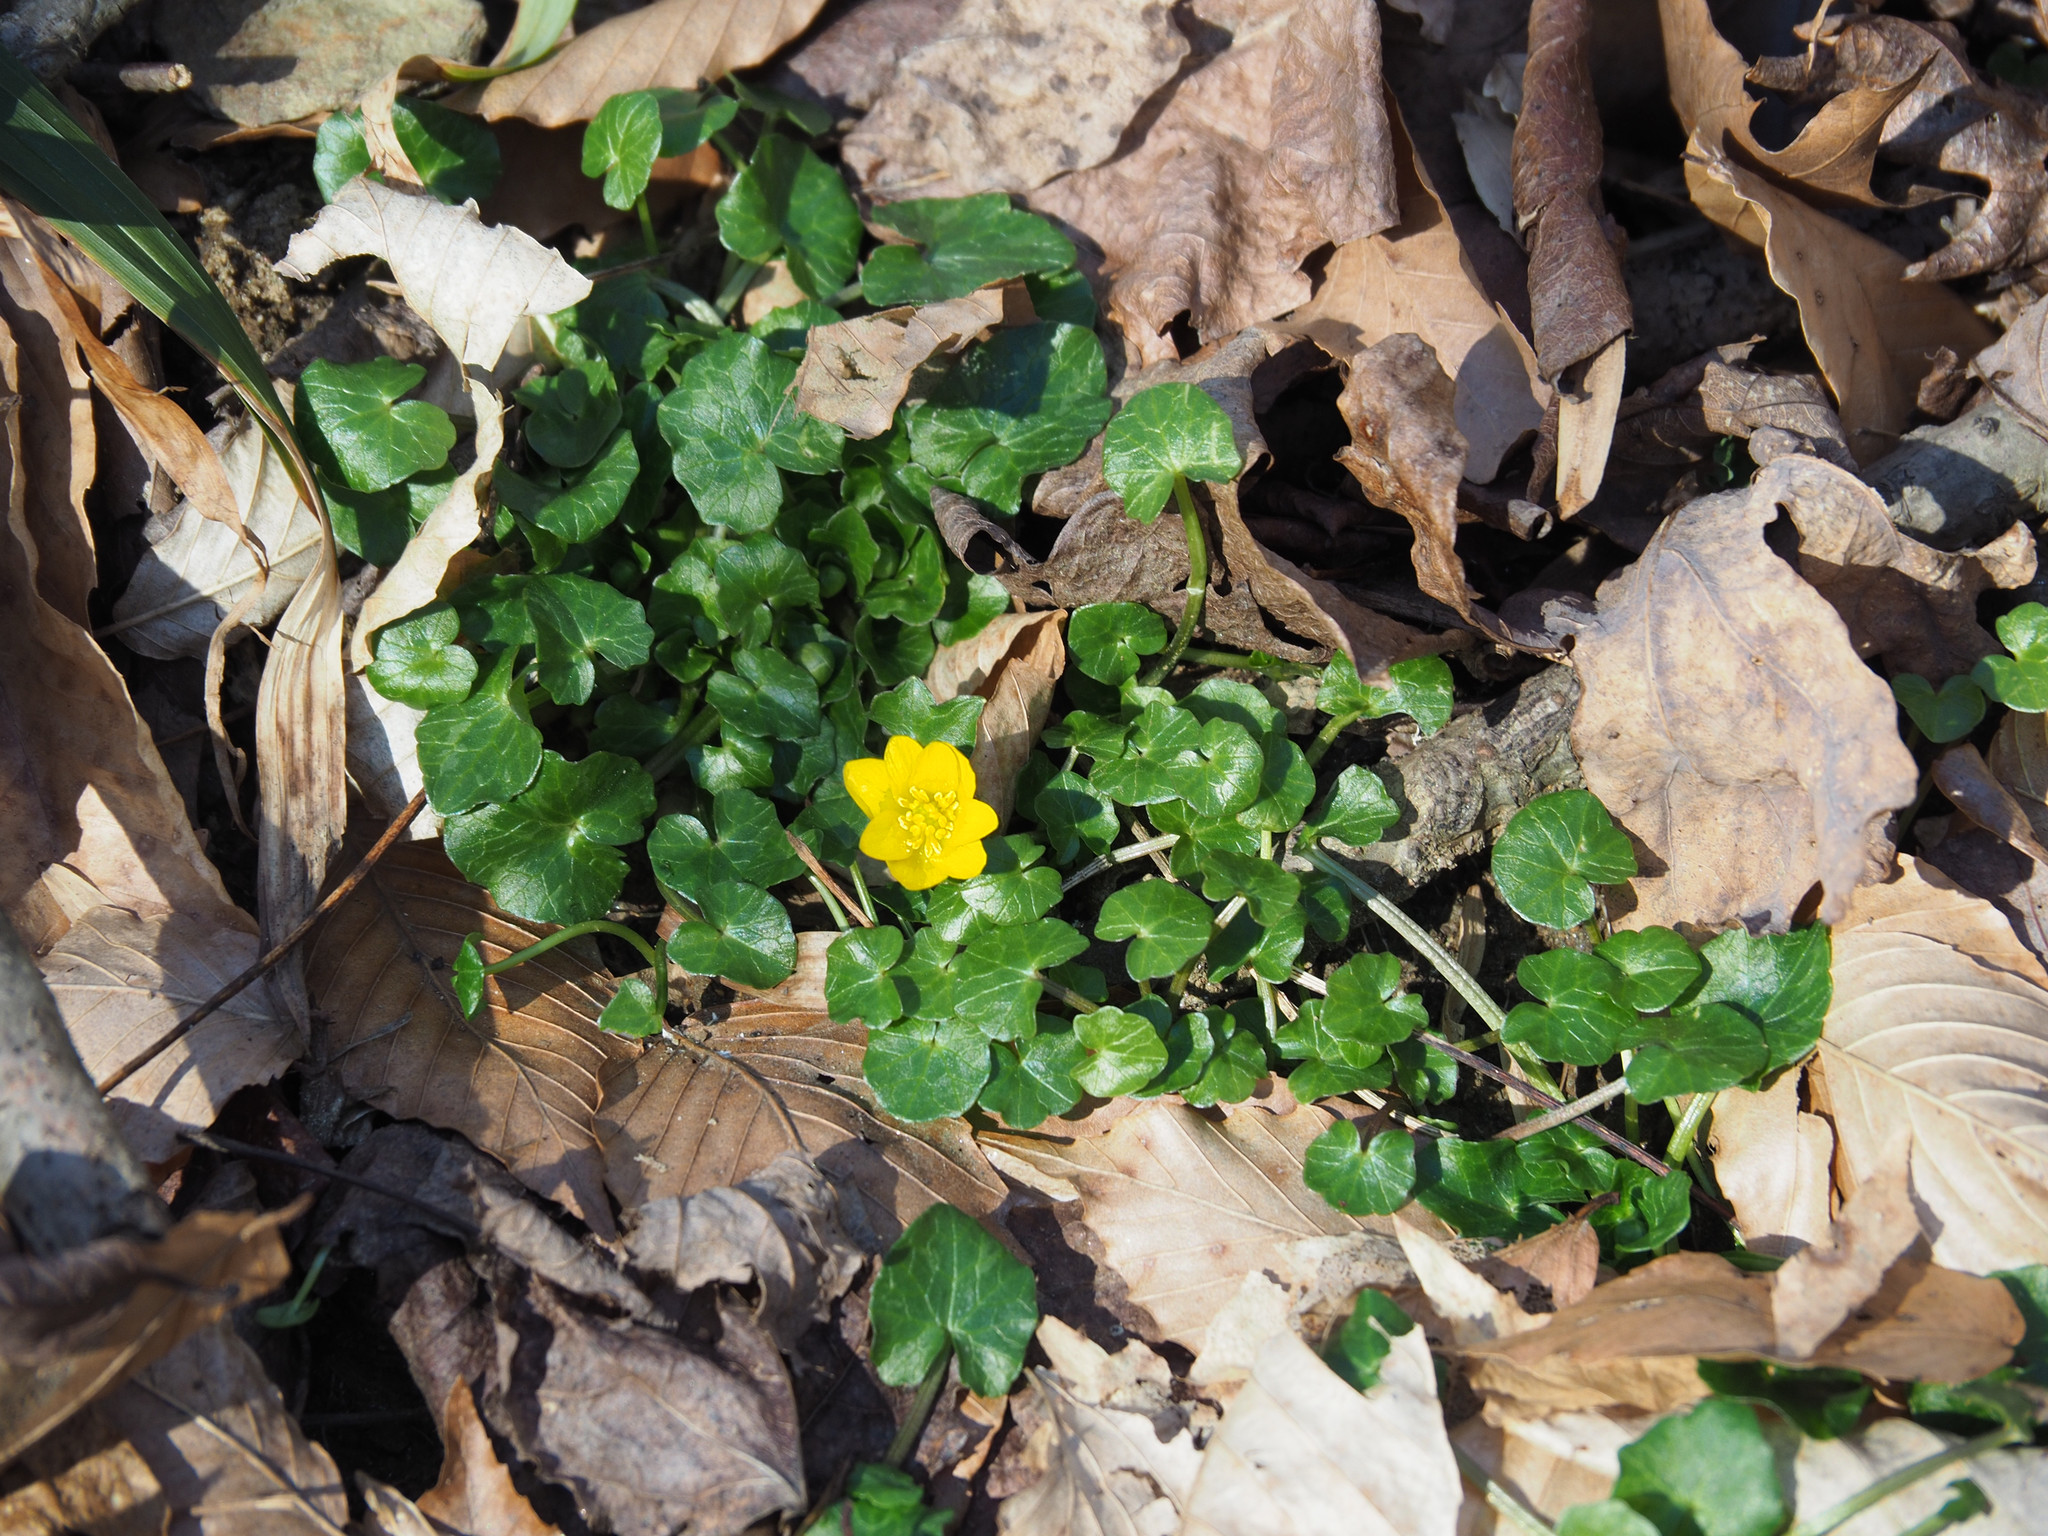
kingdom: Plantae
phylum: Tracheophyta
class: Magnoliopsida
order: Ranunculales
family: Ranunculaceae
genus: Ficaria
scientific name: Ficaria verna
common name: Lesser celandine
